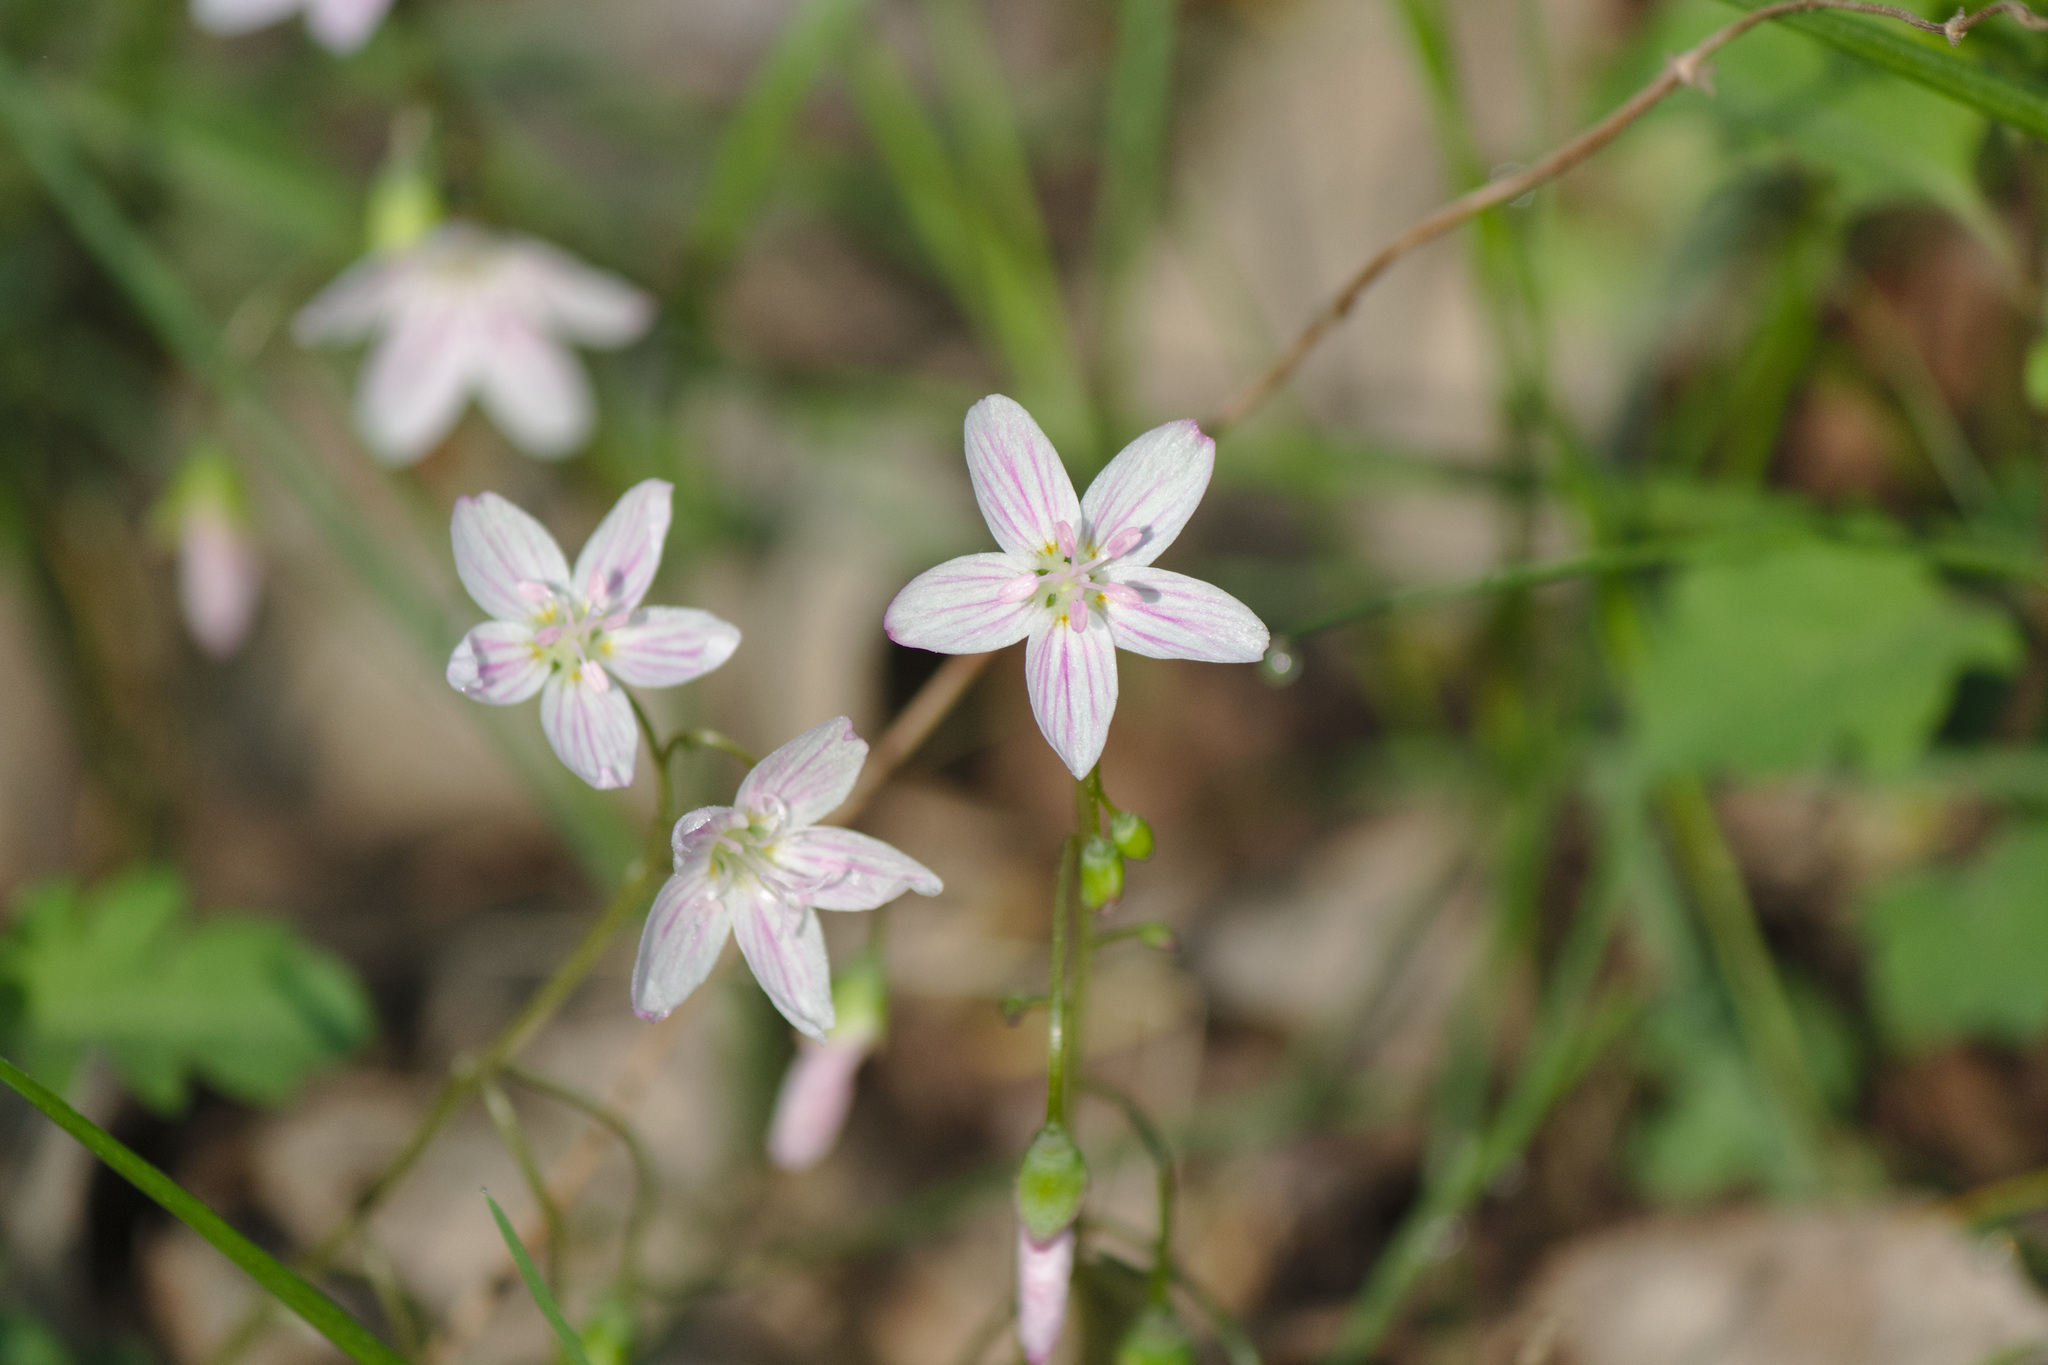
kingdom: Plantae
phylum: Tracheophyta
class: Magnoliopsida
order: Caryophyllales
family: Montiaceae
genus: Claytonia
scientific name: Claytonia virginica
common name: Virginia springbeauty
